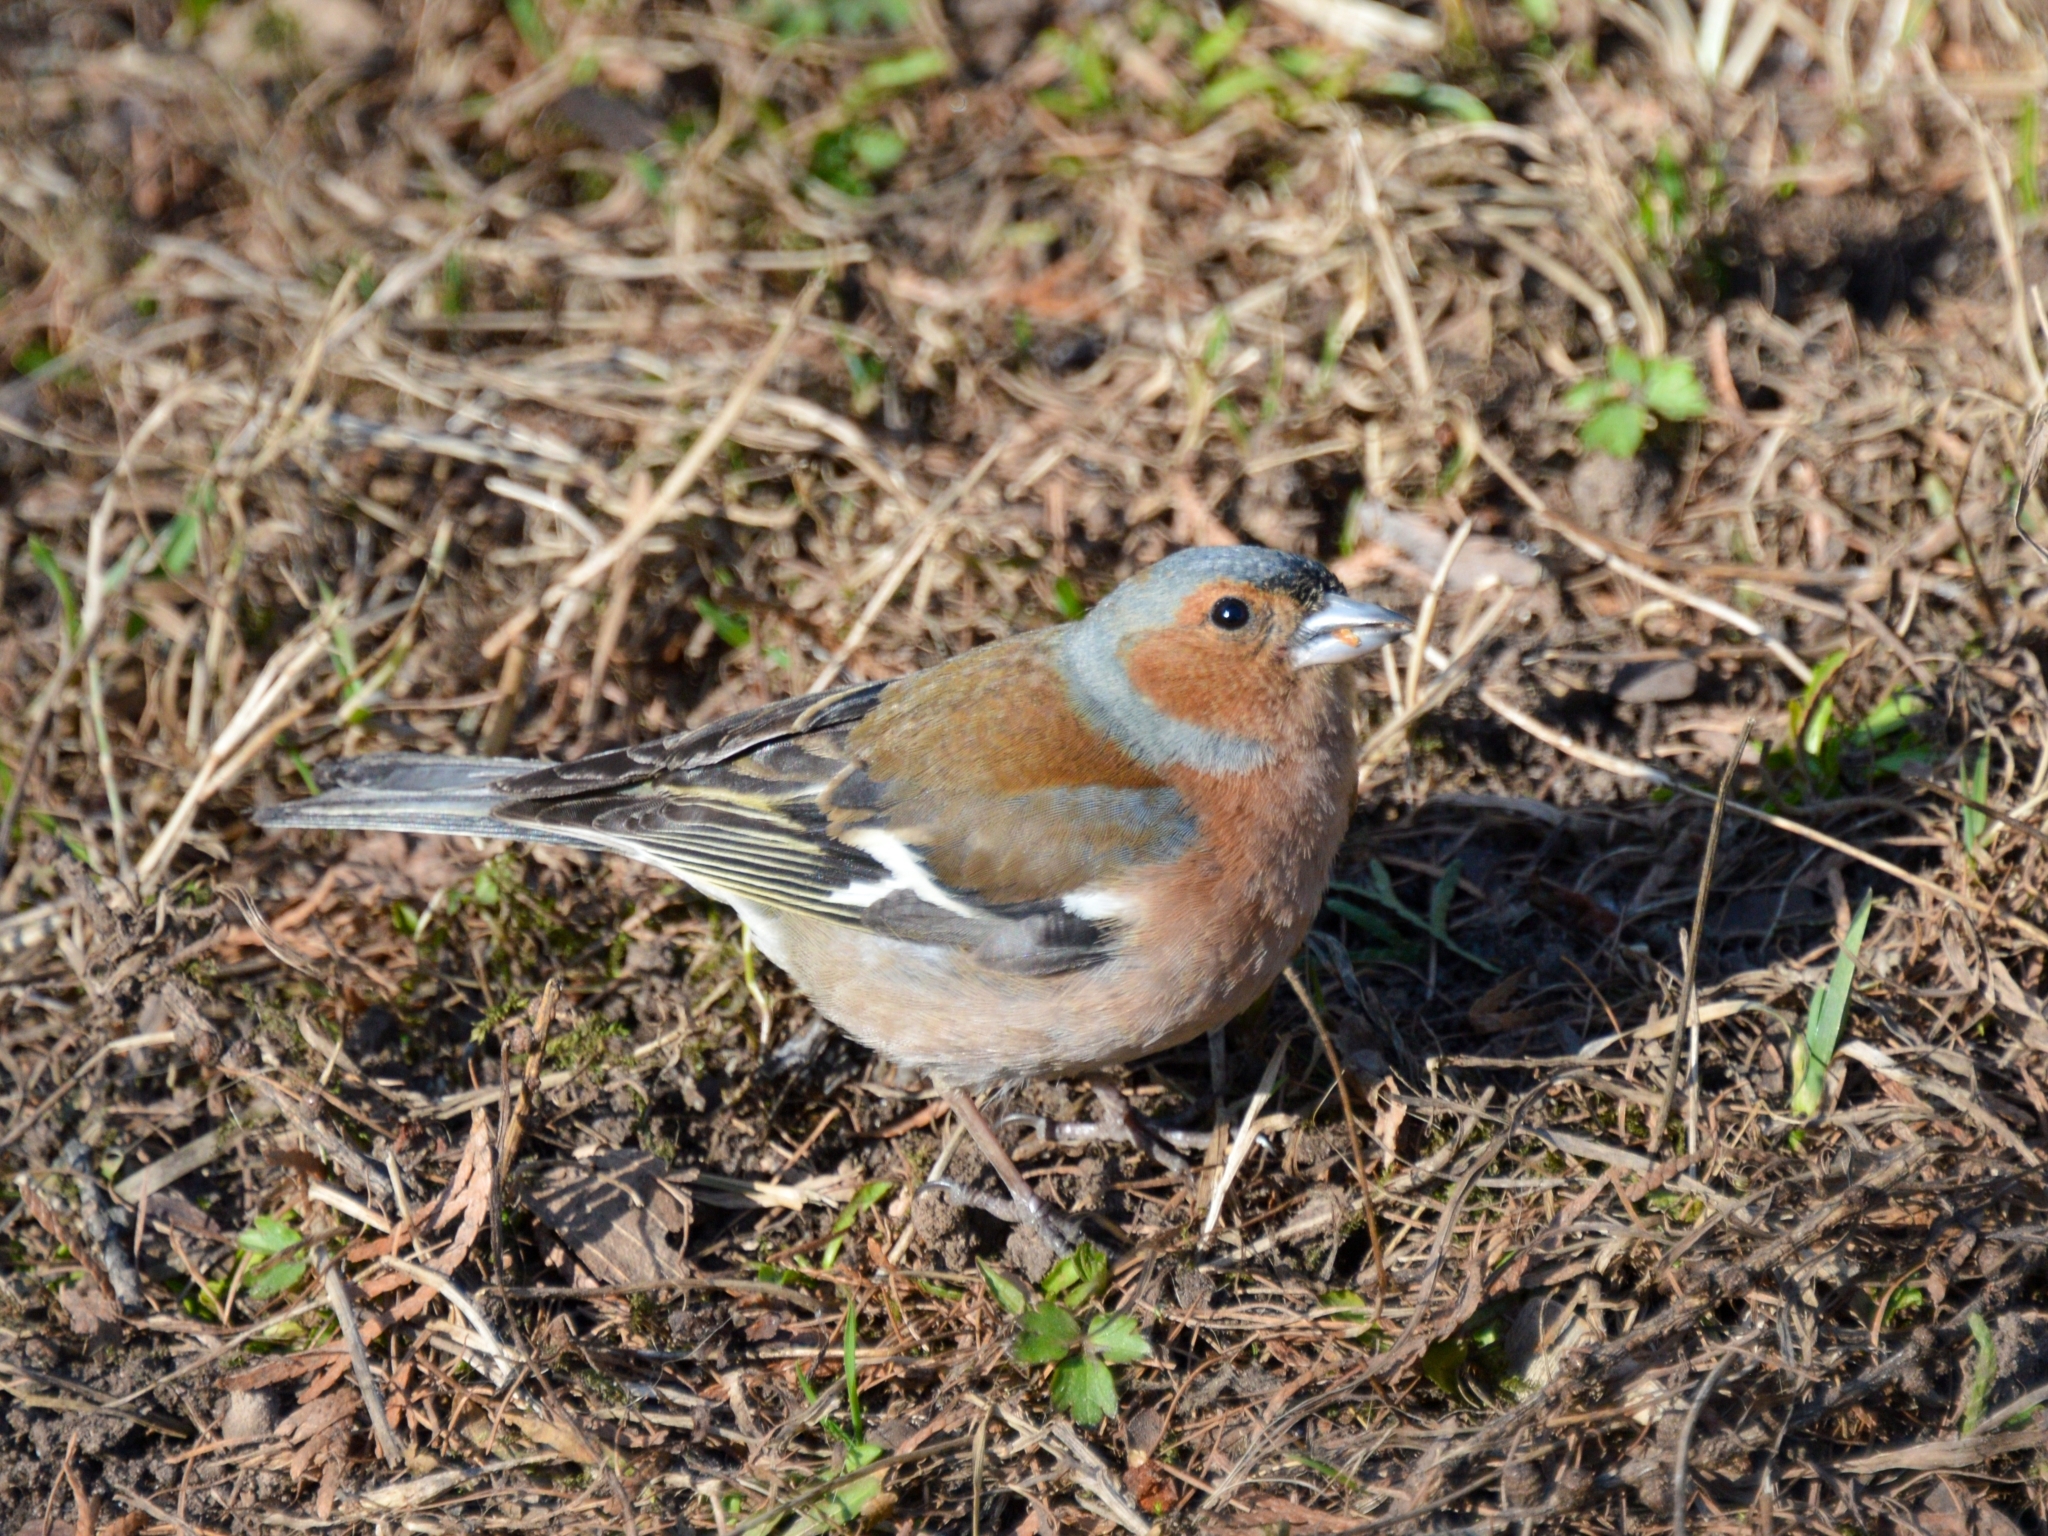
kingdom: Animalia
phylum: Chordata
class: Aves
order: Passeriformes
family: Fringillidae
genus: Fringilla
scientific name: Fringilla coelebs
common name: Common chaffinch
